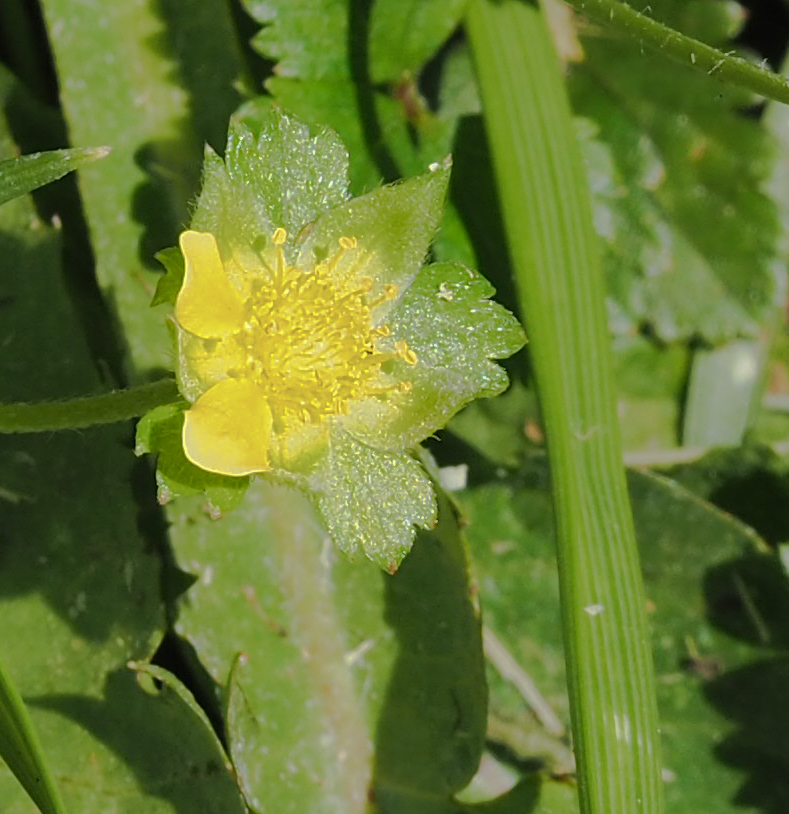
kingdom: Plantae
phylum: Tracheophyta
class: Magnoliopsida
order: Rosales
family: Rosaceae
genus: Potentilla
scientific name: Potentilla indica
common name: Yellow-flowered strawberry
